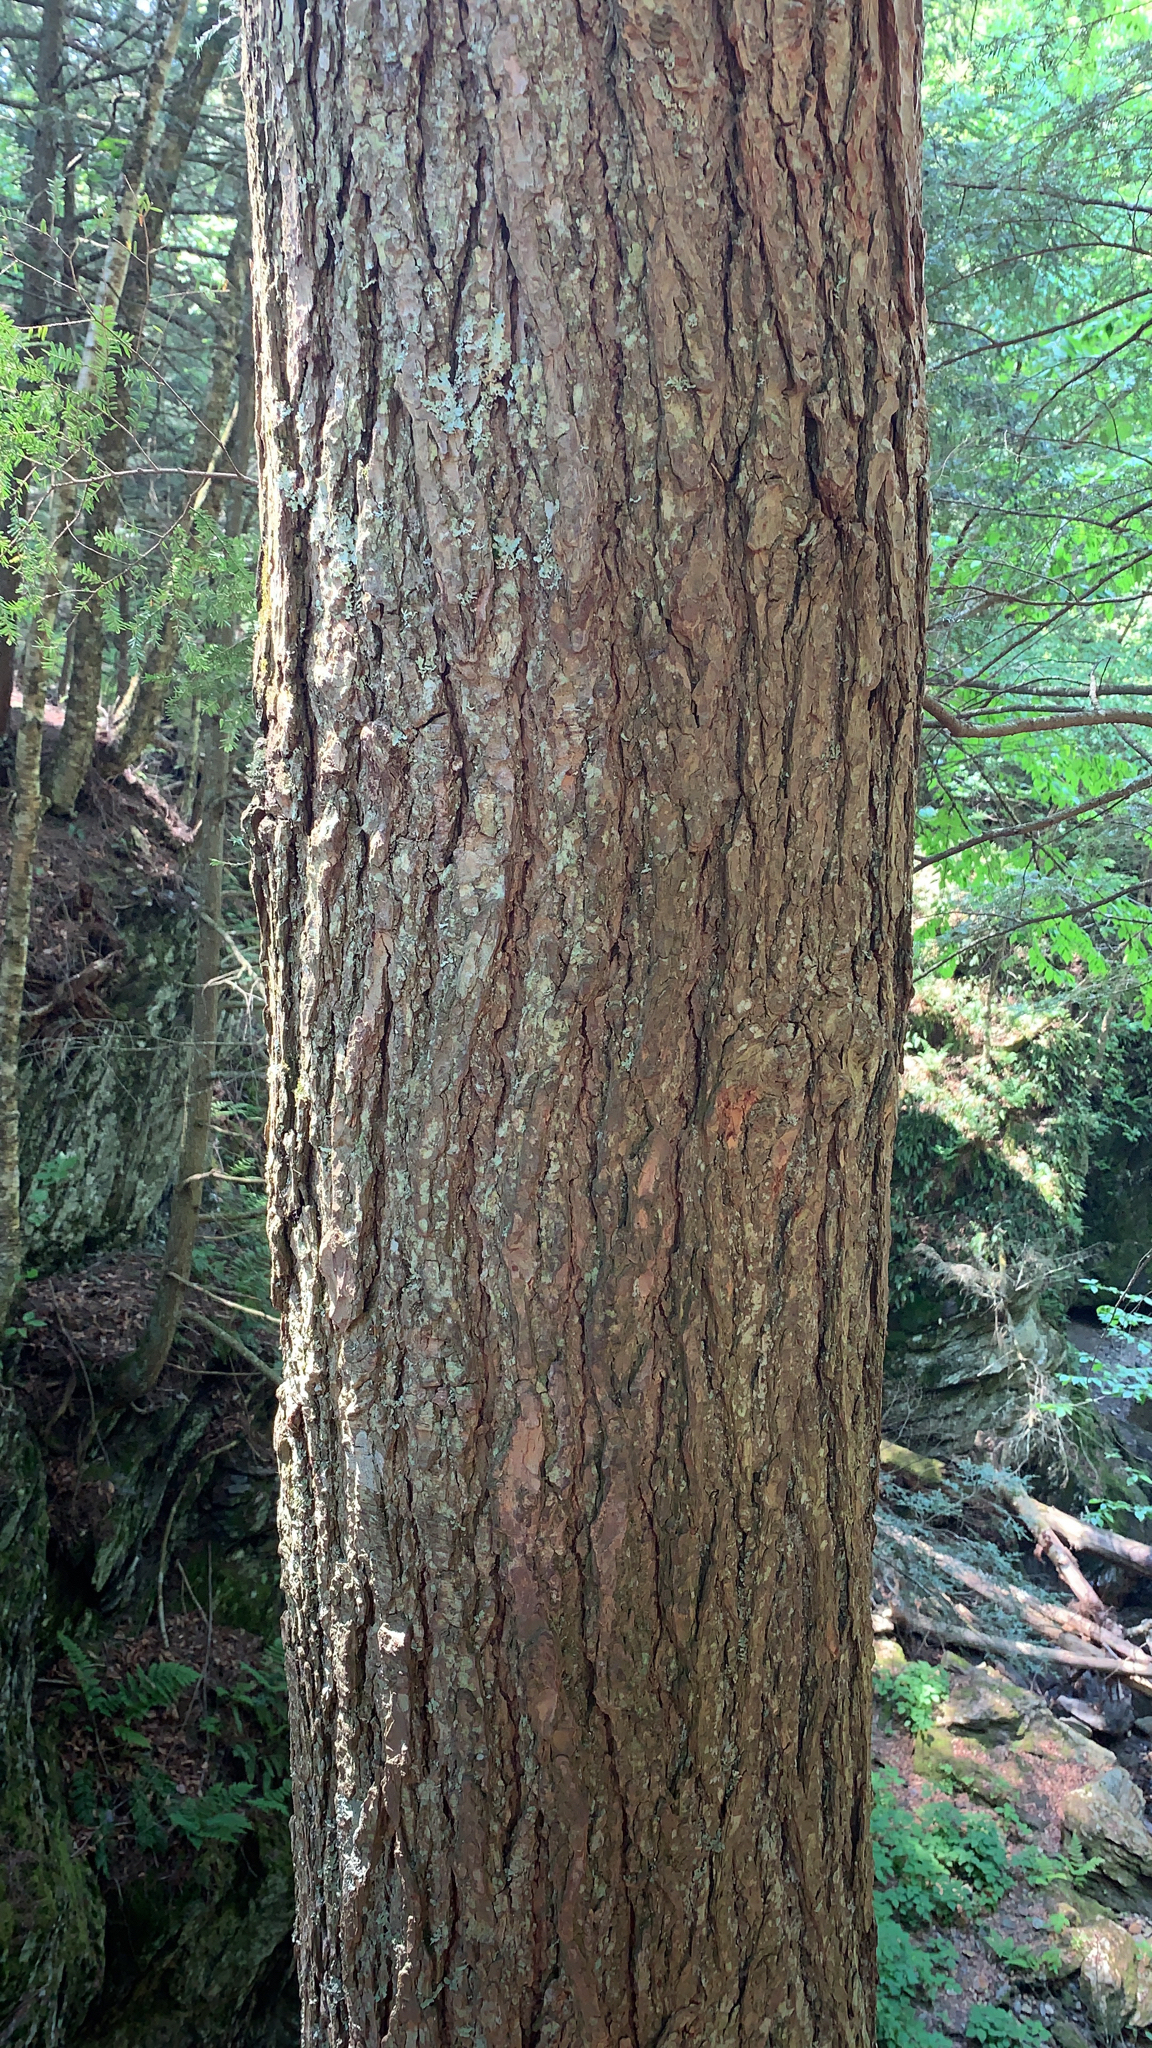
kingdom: Plantae
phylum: Tracheophyta
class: Pinopsida
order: Pinales
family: Pinaceae
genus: Tsuga
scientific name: Tsuga canadensis
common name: Eastern hemlock
